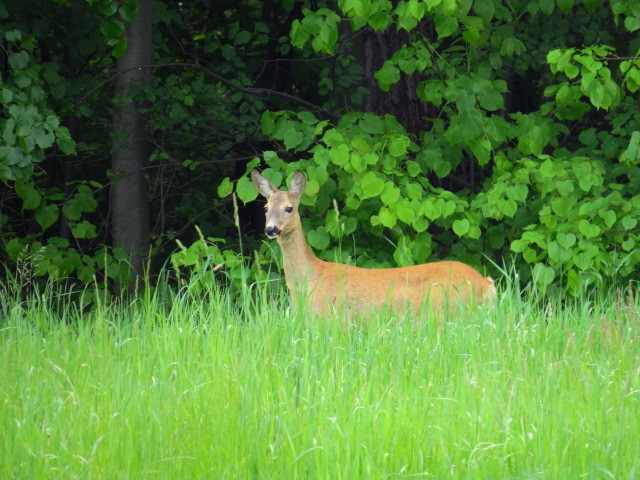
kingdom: Animalia
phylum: Chordata
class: Mammalia
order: Artiodactyla
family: Cervidae
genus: Capreolus
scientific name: Capreolus capreolus
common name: Western roe deer
